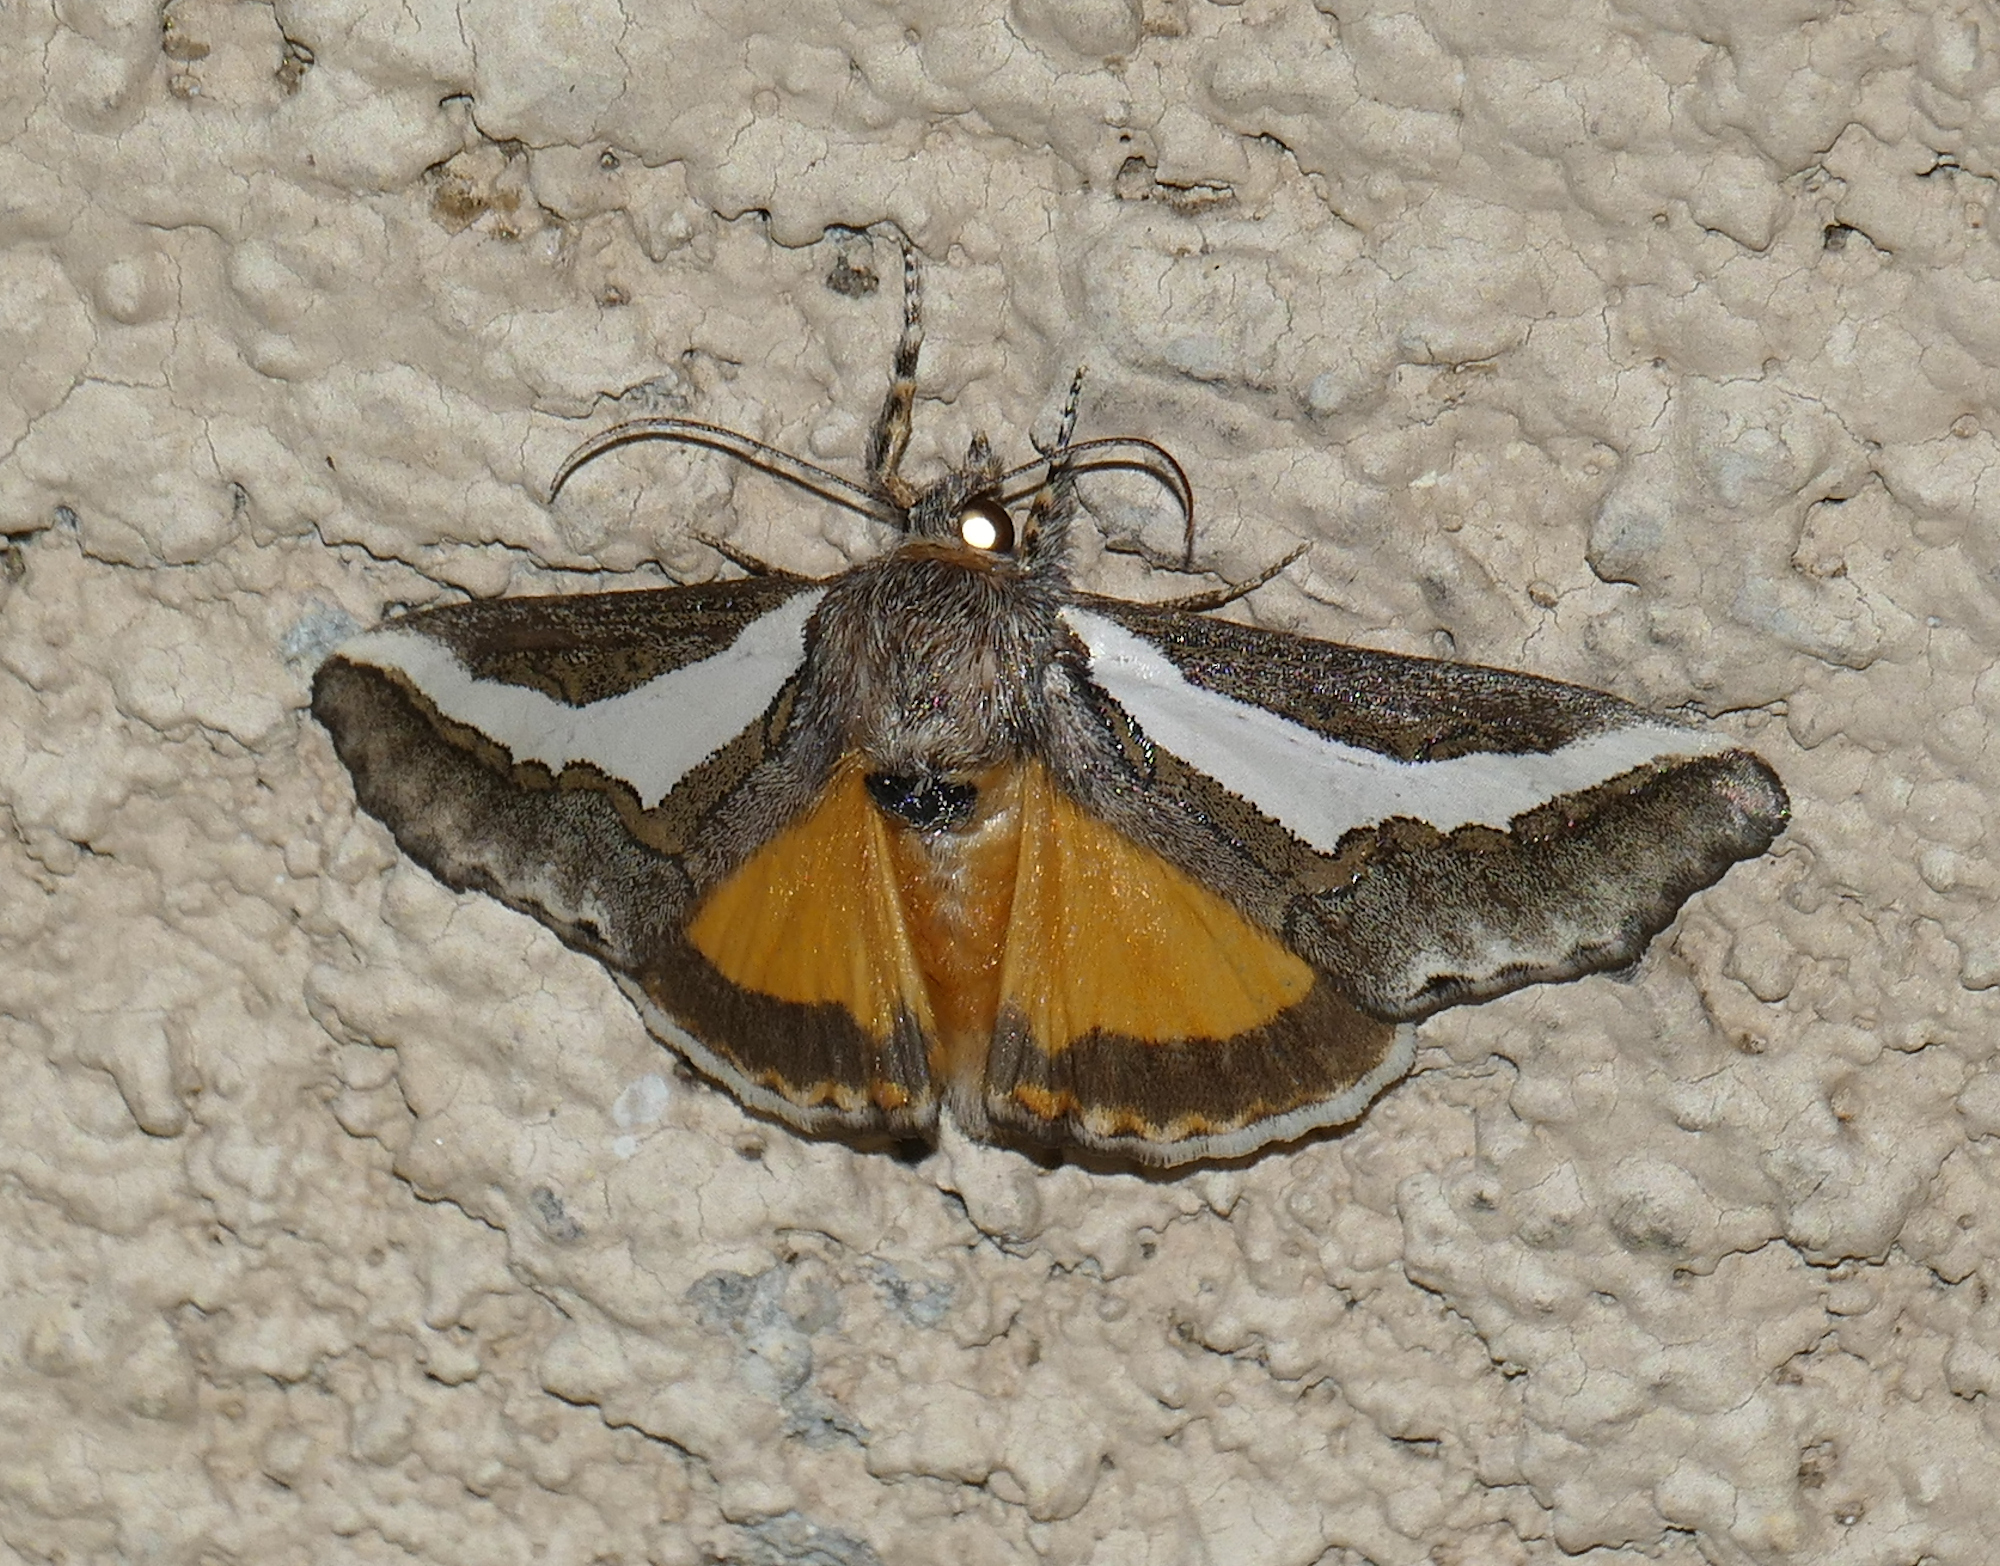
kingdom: Animalia
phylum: Arthropoda
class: Insecta
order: Lepidoptera
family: Noctuidae
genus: Euscirrhopterus
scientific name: Euscirrhopterus cosyra
